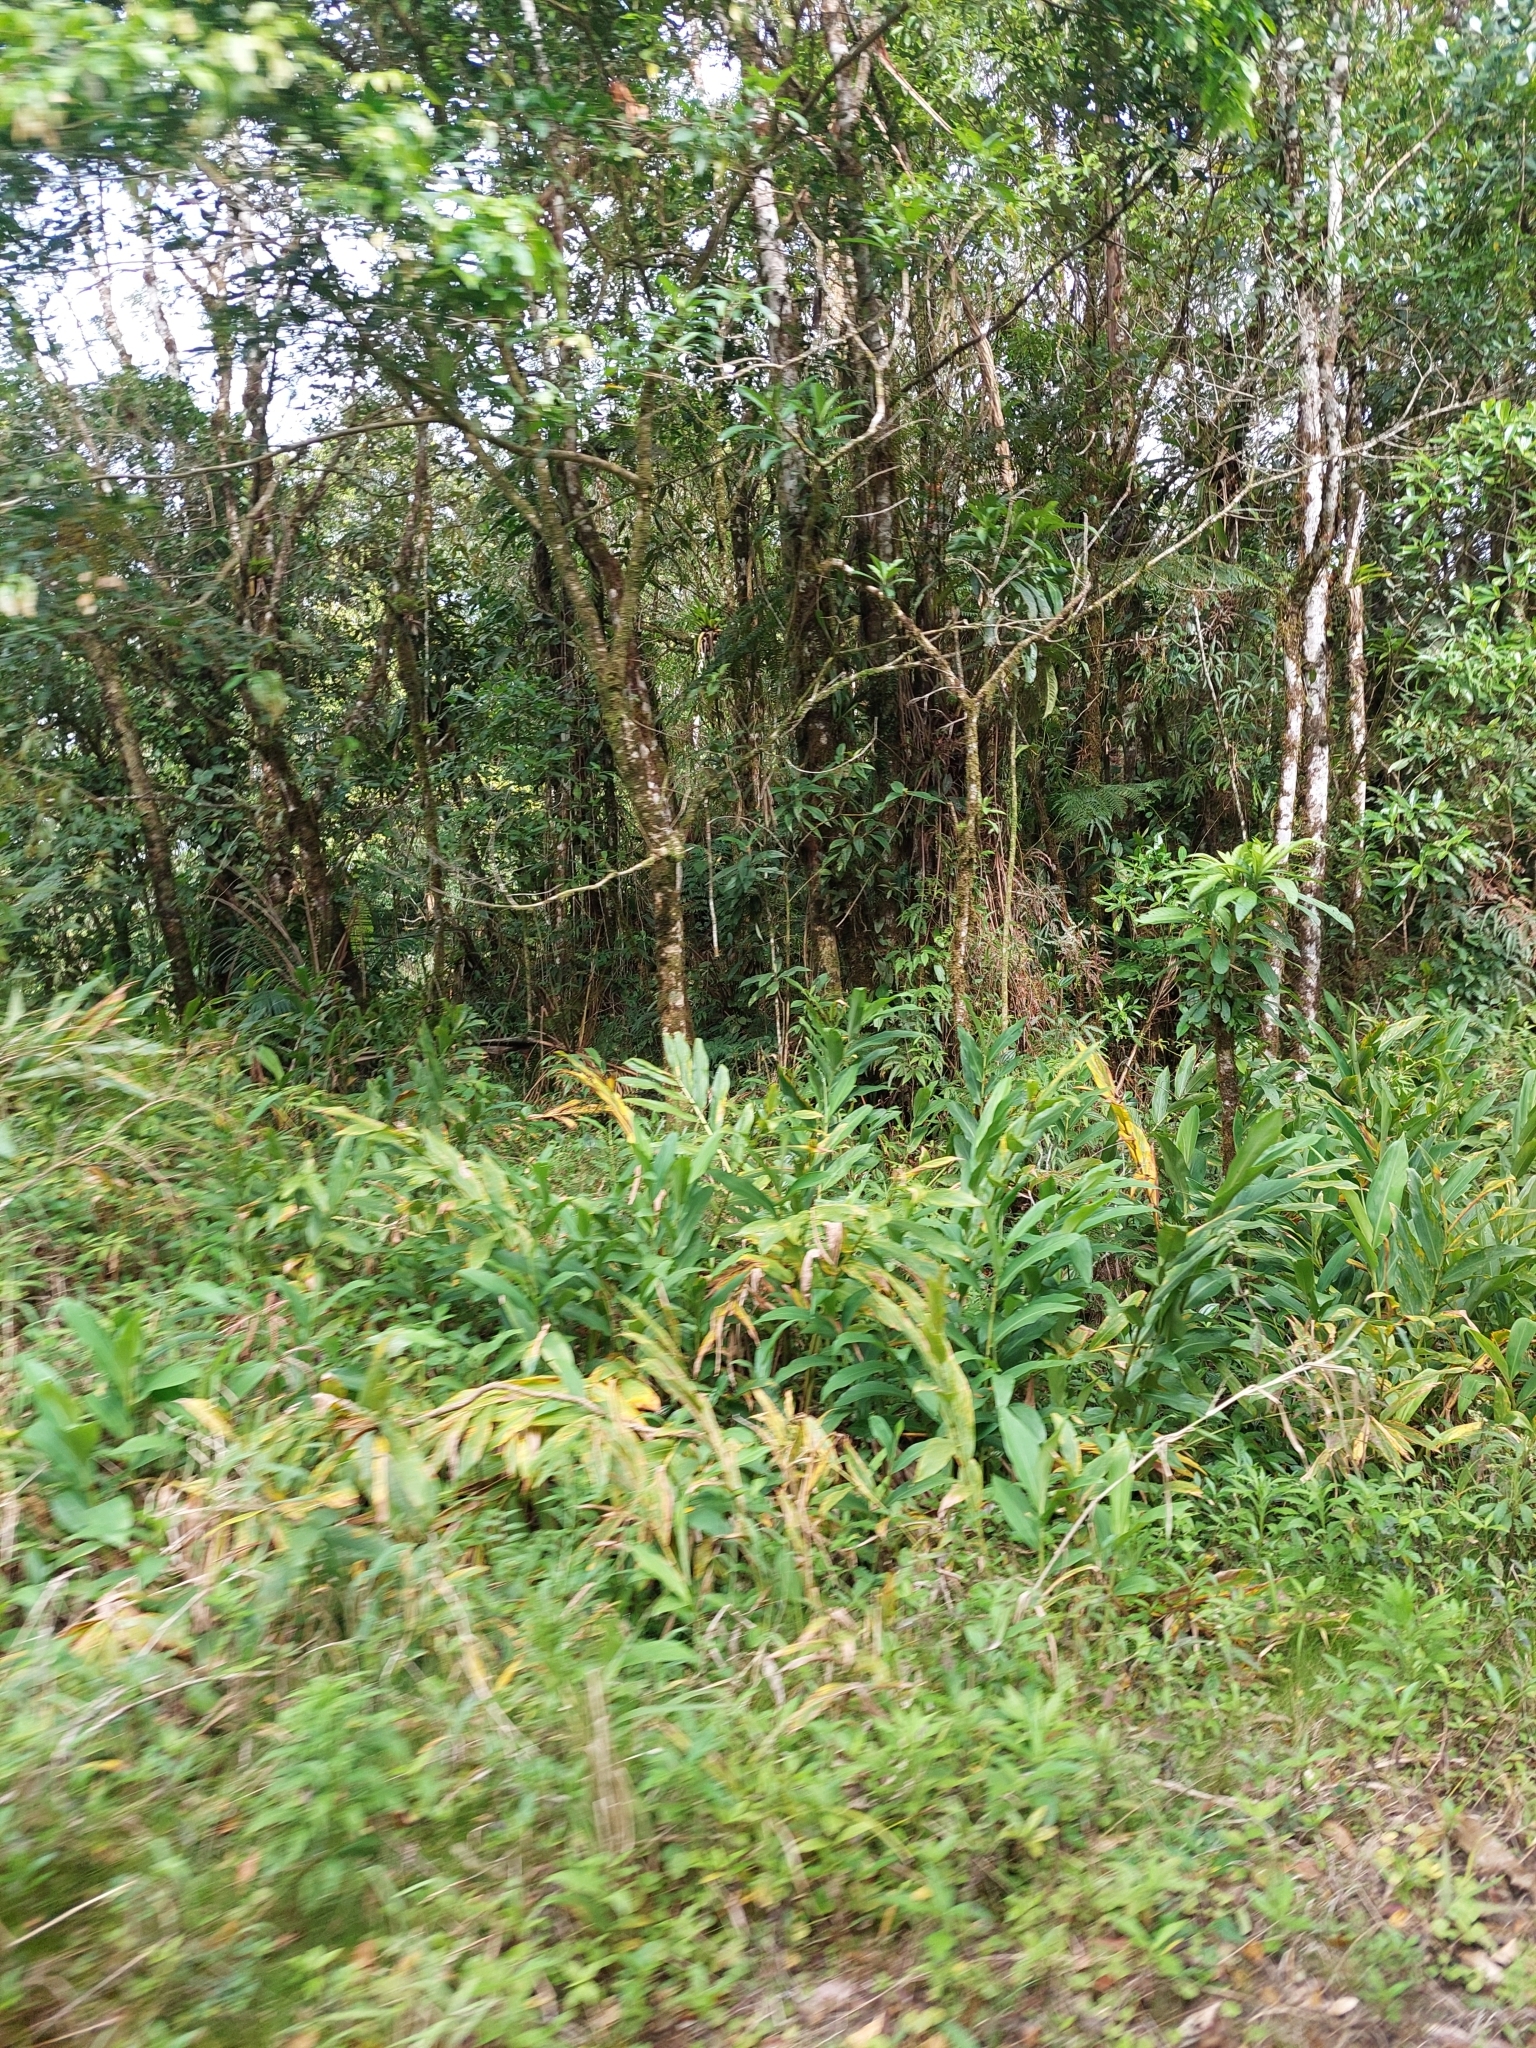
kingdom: Plantae
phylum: Tracheophyta
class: Liliopsida
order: Zingiberales
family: Zingiberaceae
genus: Hedychium
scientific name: Hedychium coronarium
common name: White garland-lily
